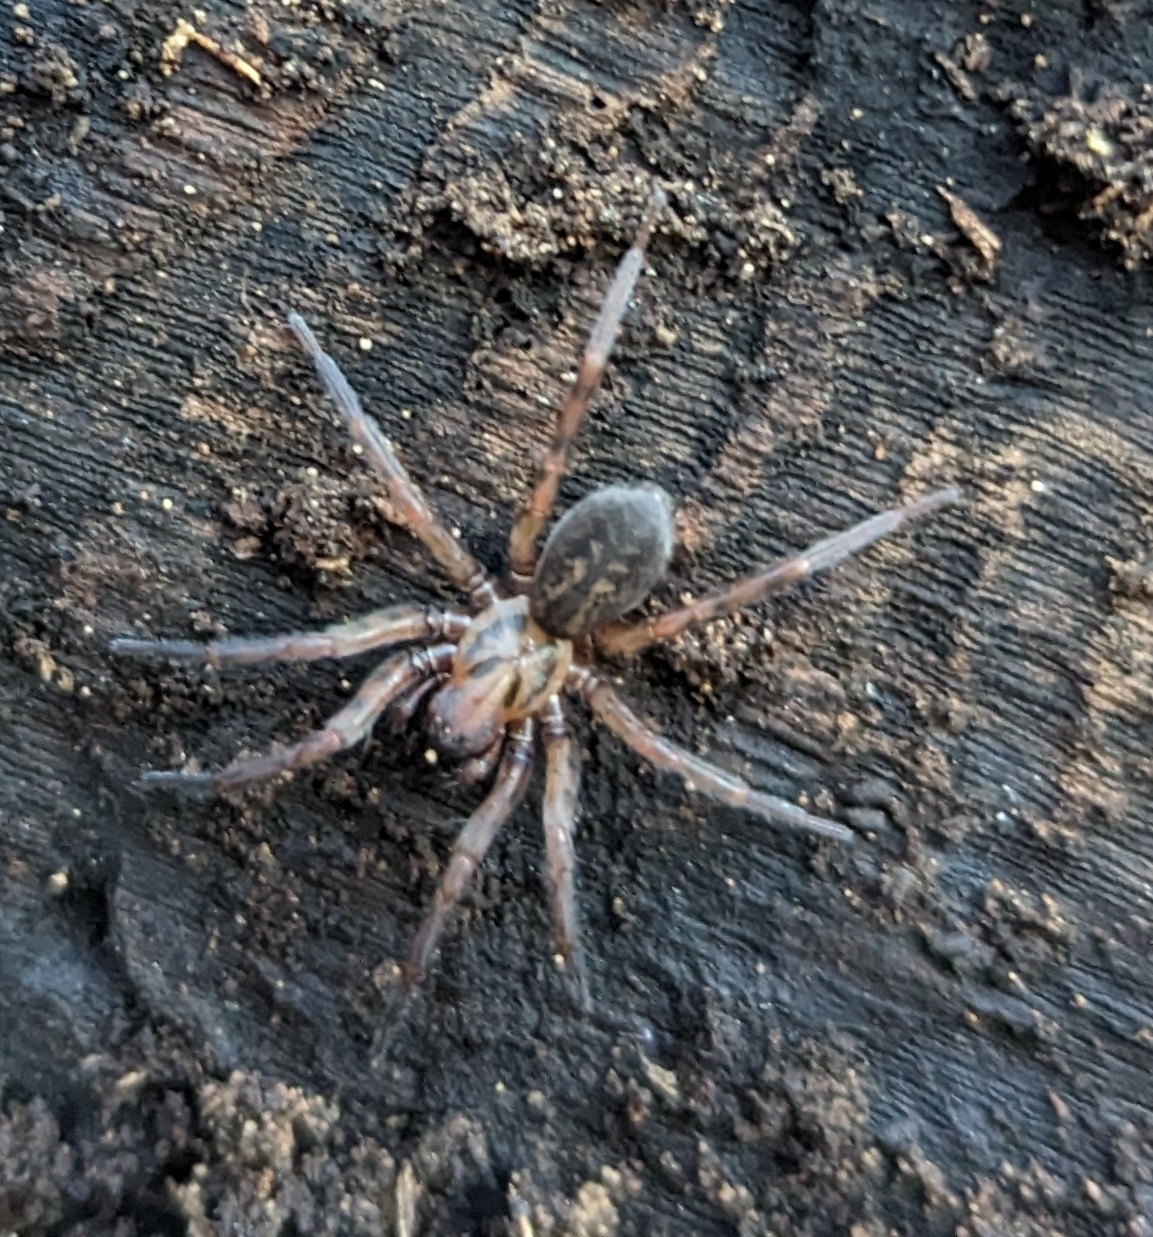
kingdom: Animalia
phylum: Arthropoda
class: Arachnida
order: Araneae
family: Agelenidae
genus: Coras
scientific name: Coras
